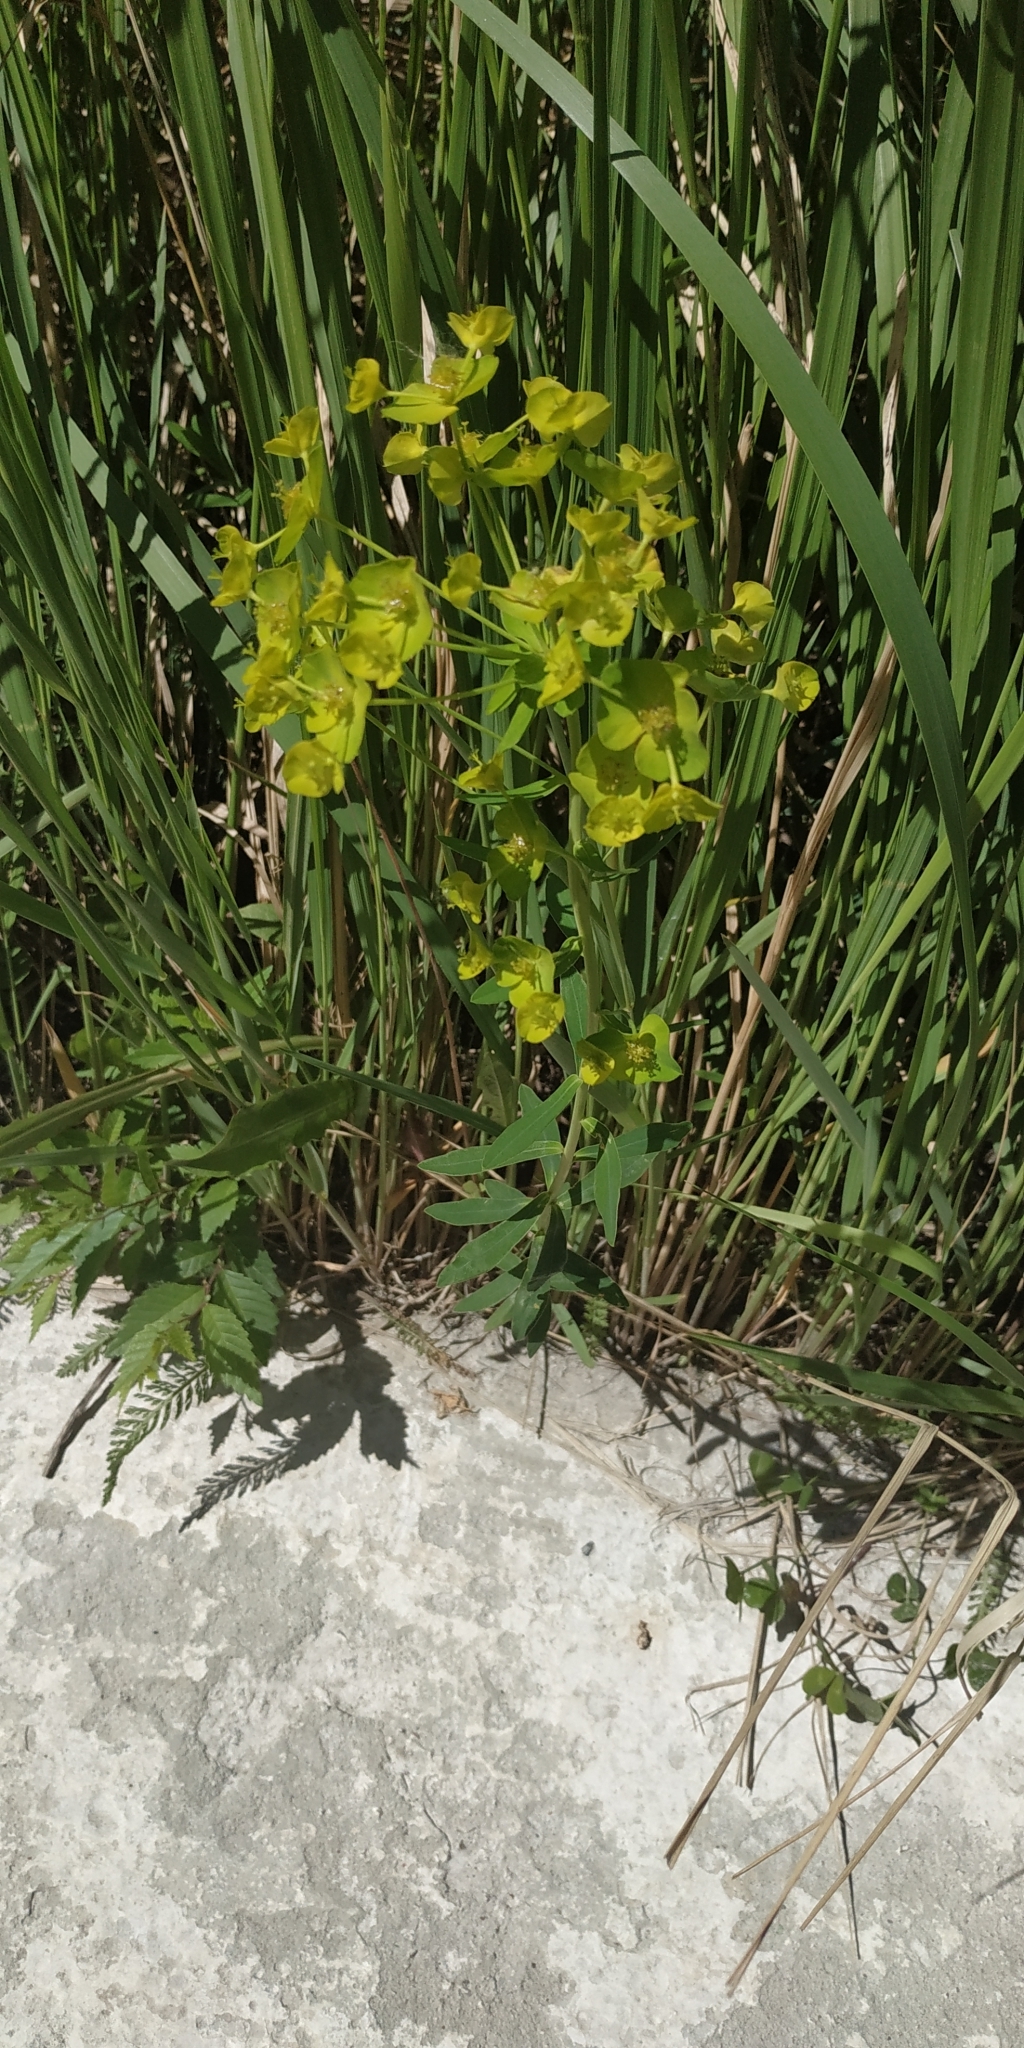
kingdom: Plantae
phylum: Tracheophyta
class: Magnoliopsida
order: Malpighiales
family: Euphorbiaceae
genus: Euphorbia
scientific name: Euphorbia virgata
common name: Leafy spurge
